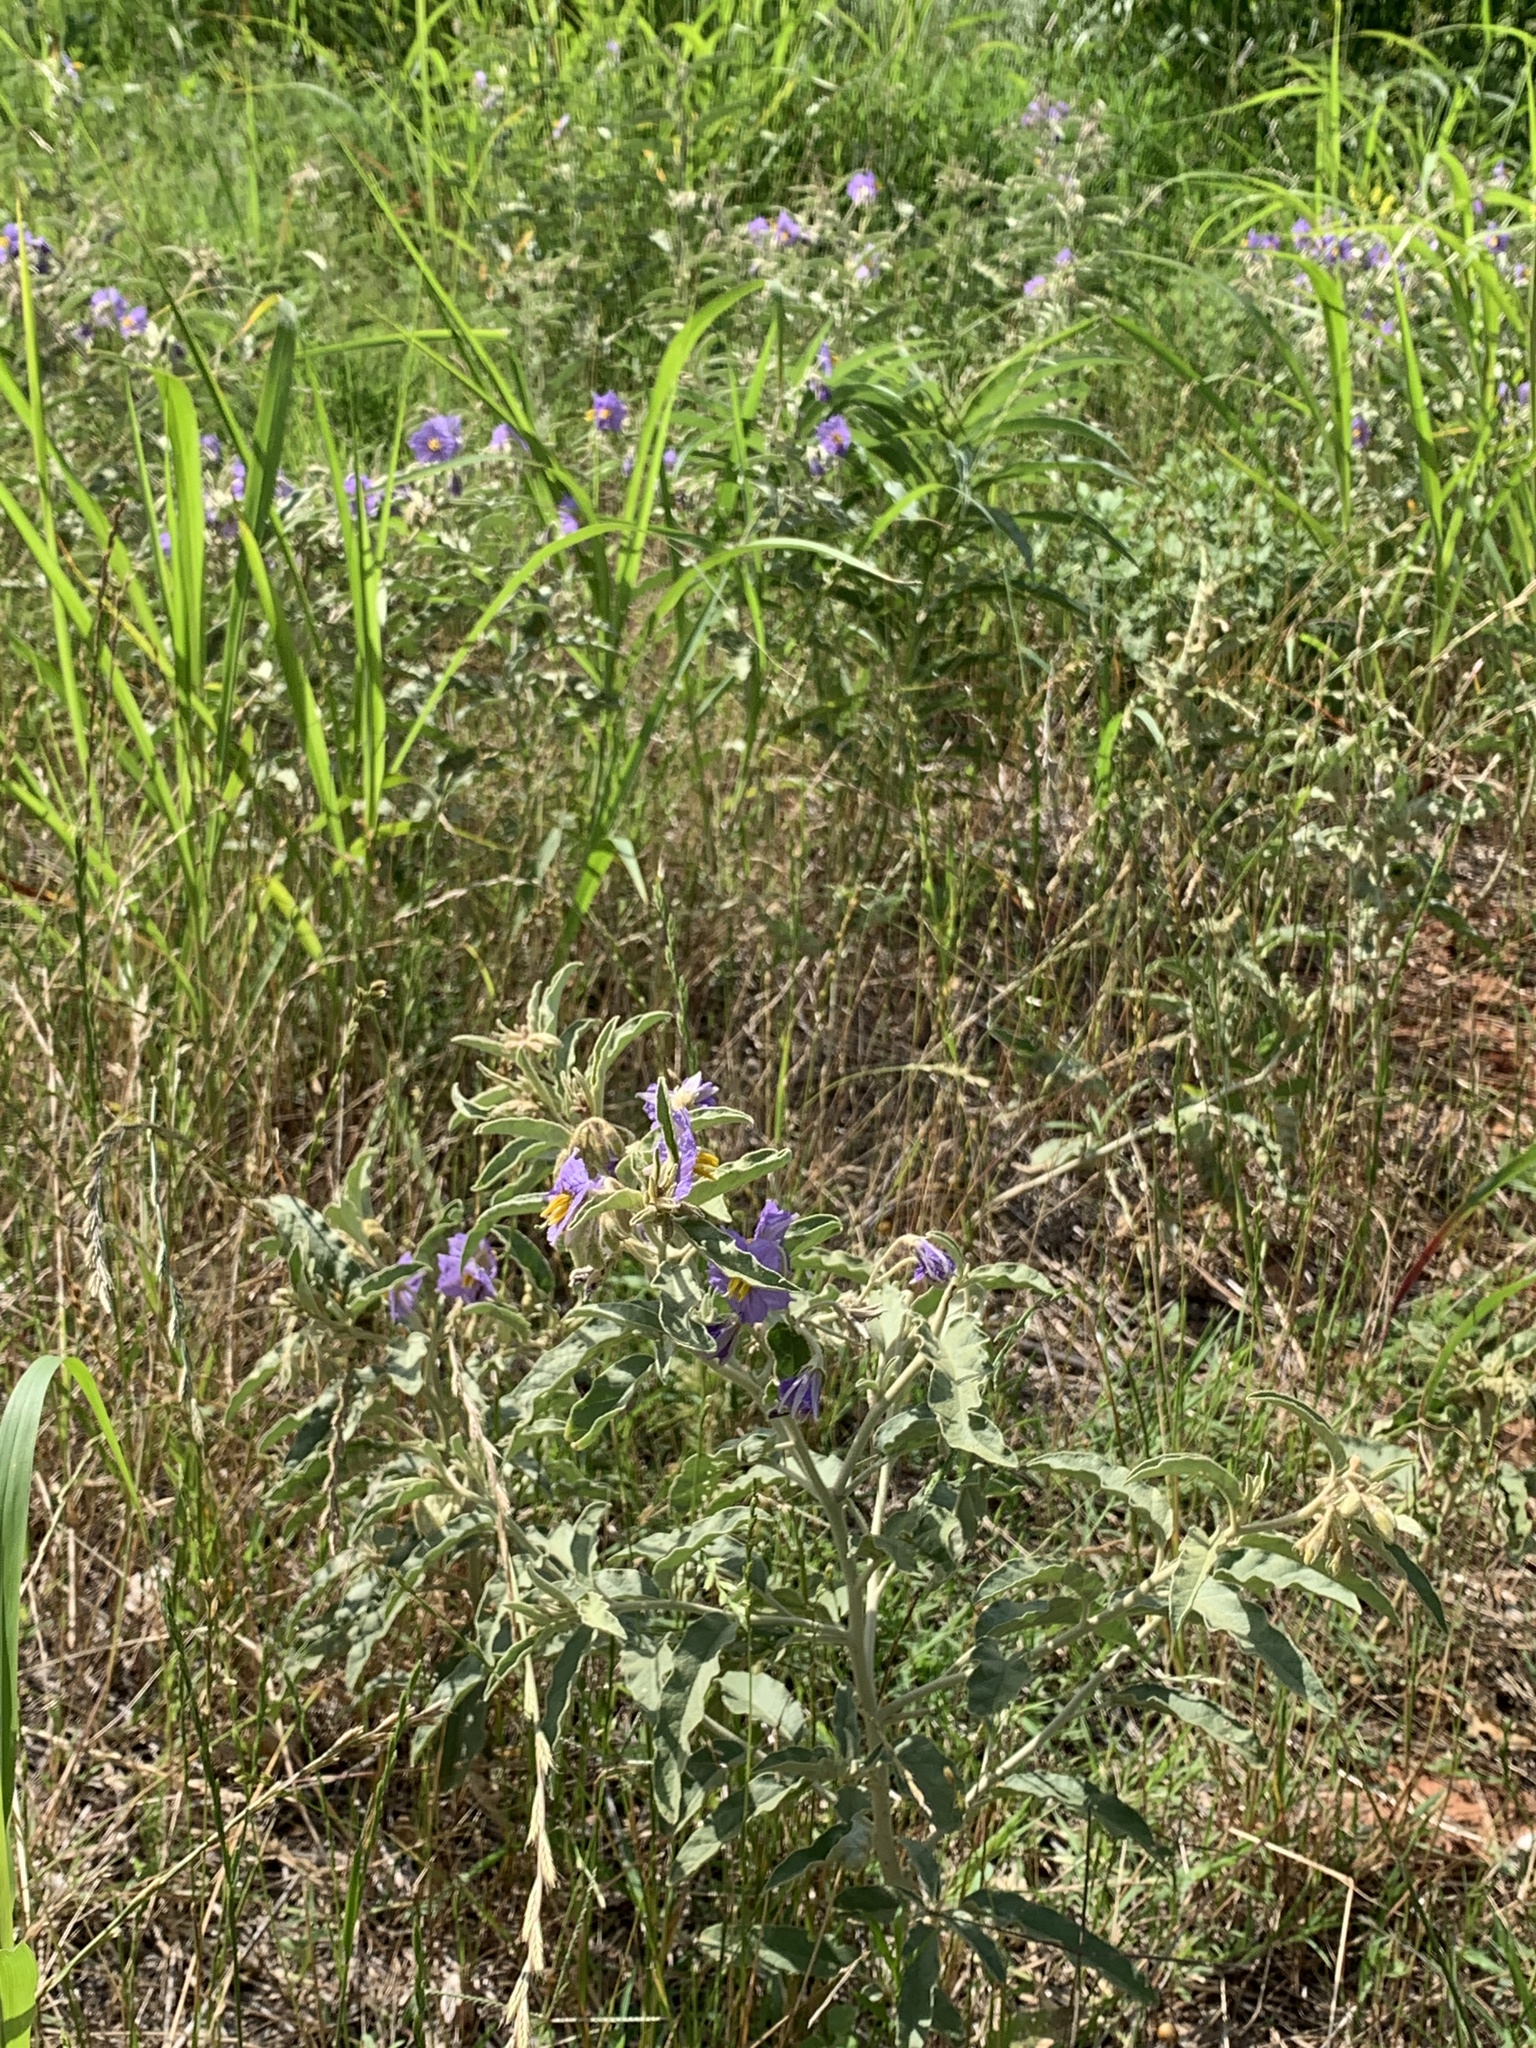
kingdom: Plantae
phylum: Tracheophyta
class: Magnoliopsida
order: Solanales
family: Solanaceae
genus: Solanum
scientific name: Solanum elaeagnifolium
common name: Silverleaf nightshade
